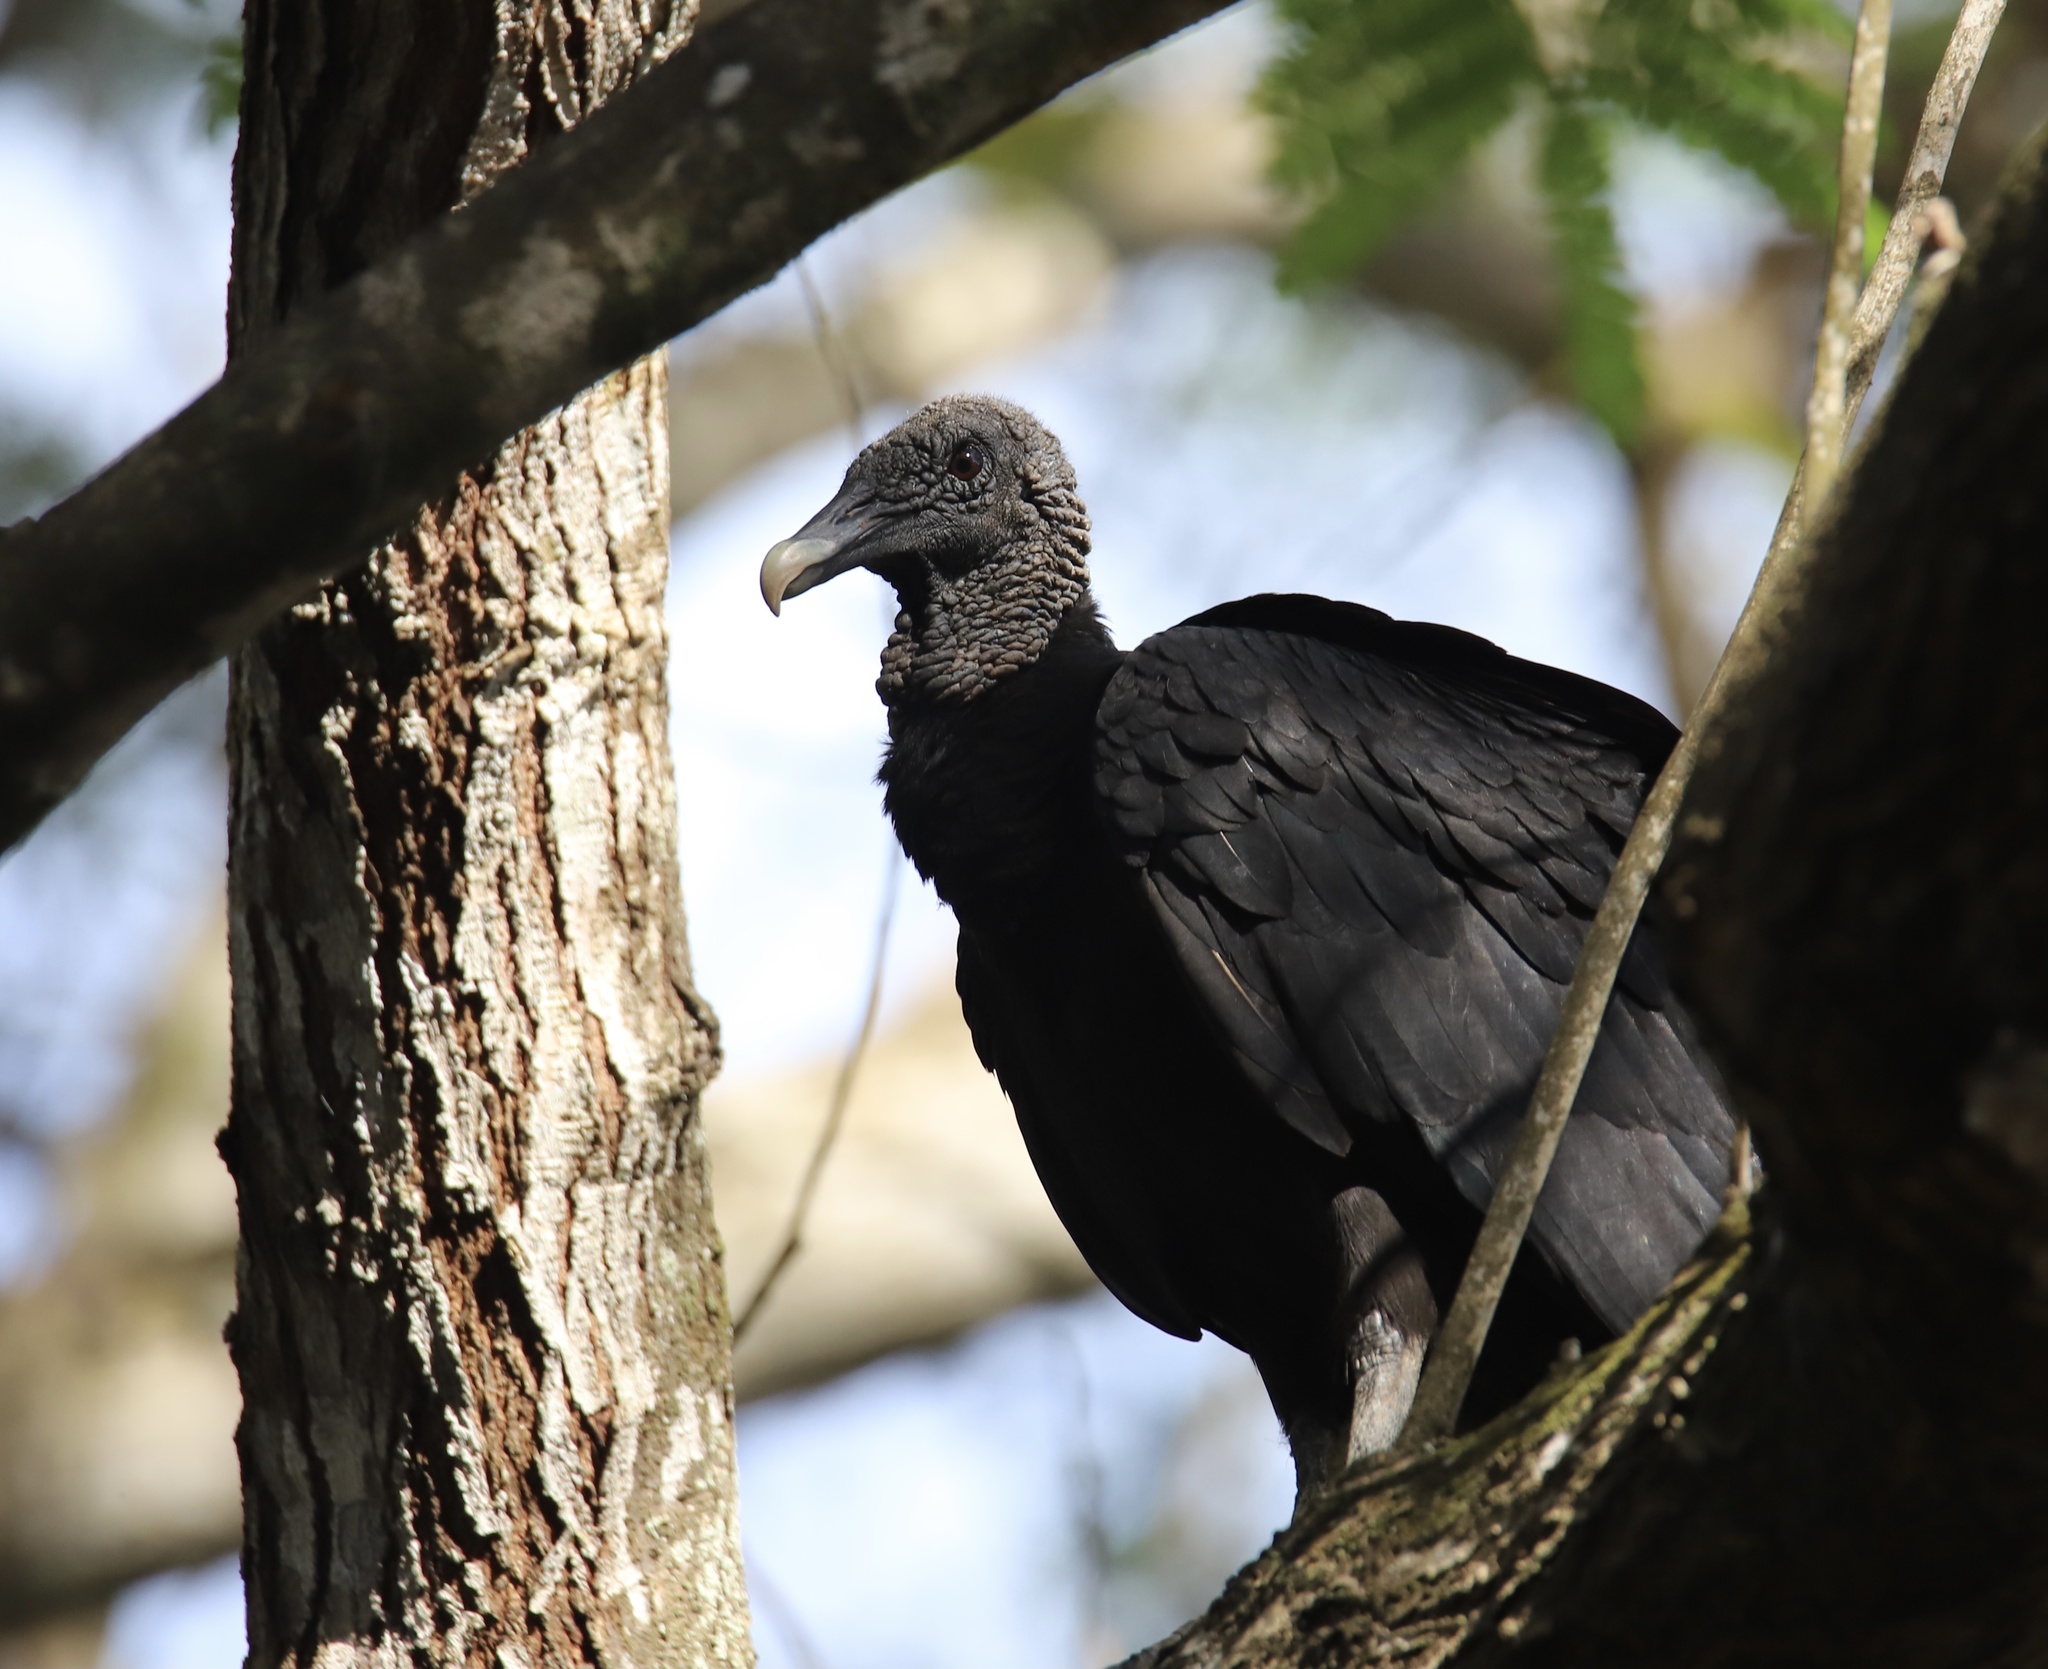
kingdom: Animalia
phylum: Chordata
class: Aves
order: Accipitriformes
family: Cathartidae
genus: Coragyps
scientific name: Coragyps atratus
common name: Black vulture
